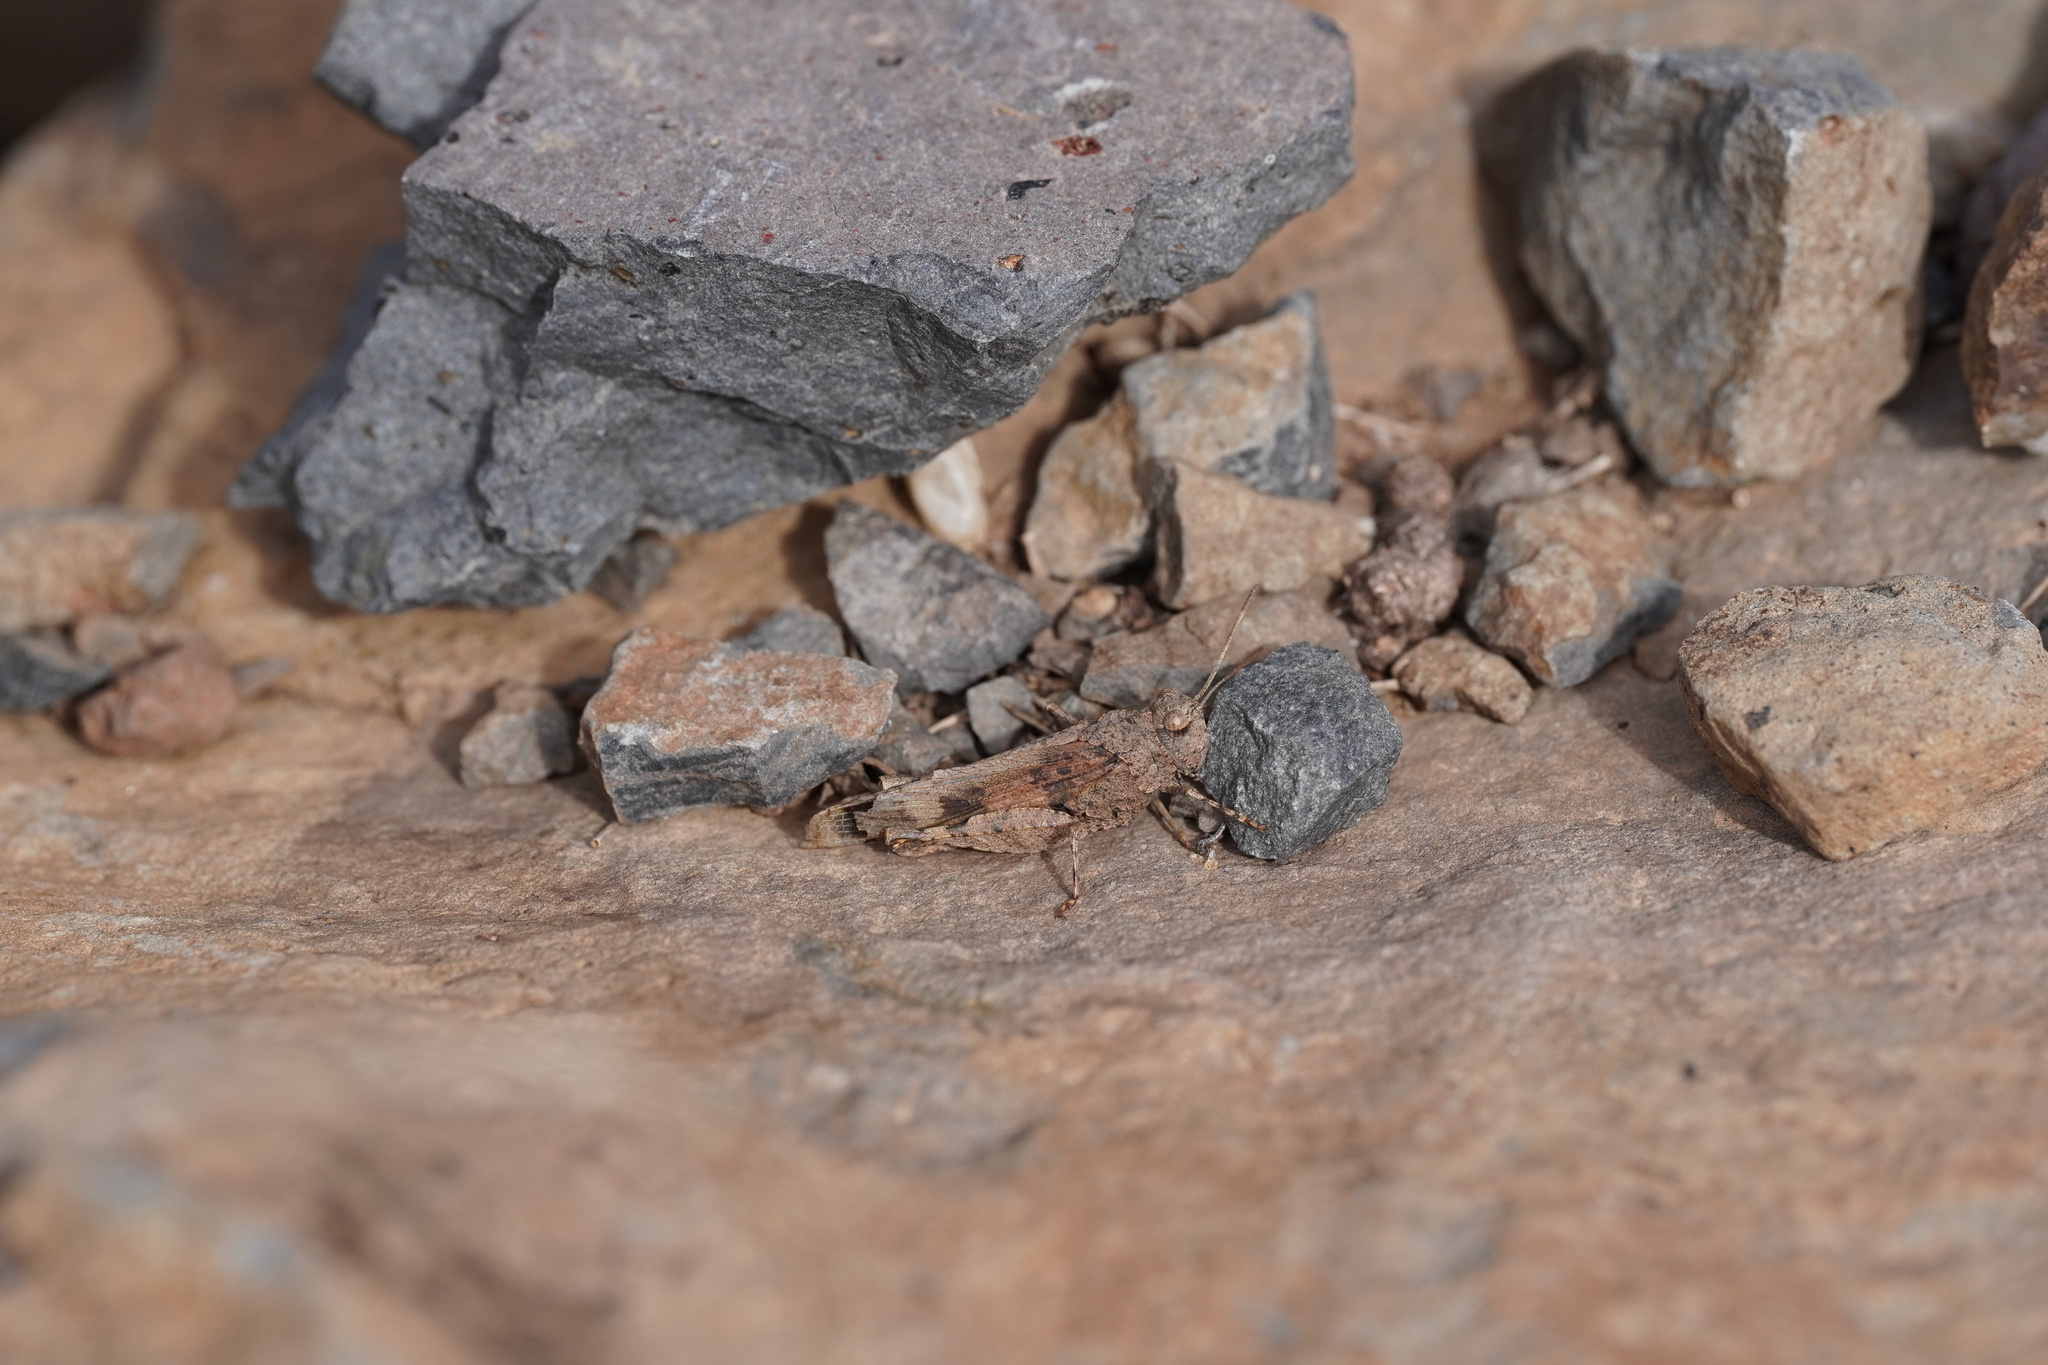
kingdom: Animalia
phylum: Arthropoda
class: Insecta
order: Orthoptera
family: Acrididae
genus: Oedipoda
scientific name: Oedipoda canariensis
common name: Canarian band-winged grasshopper
